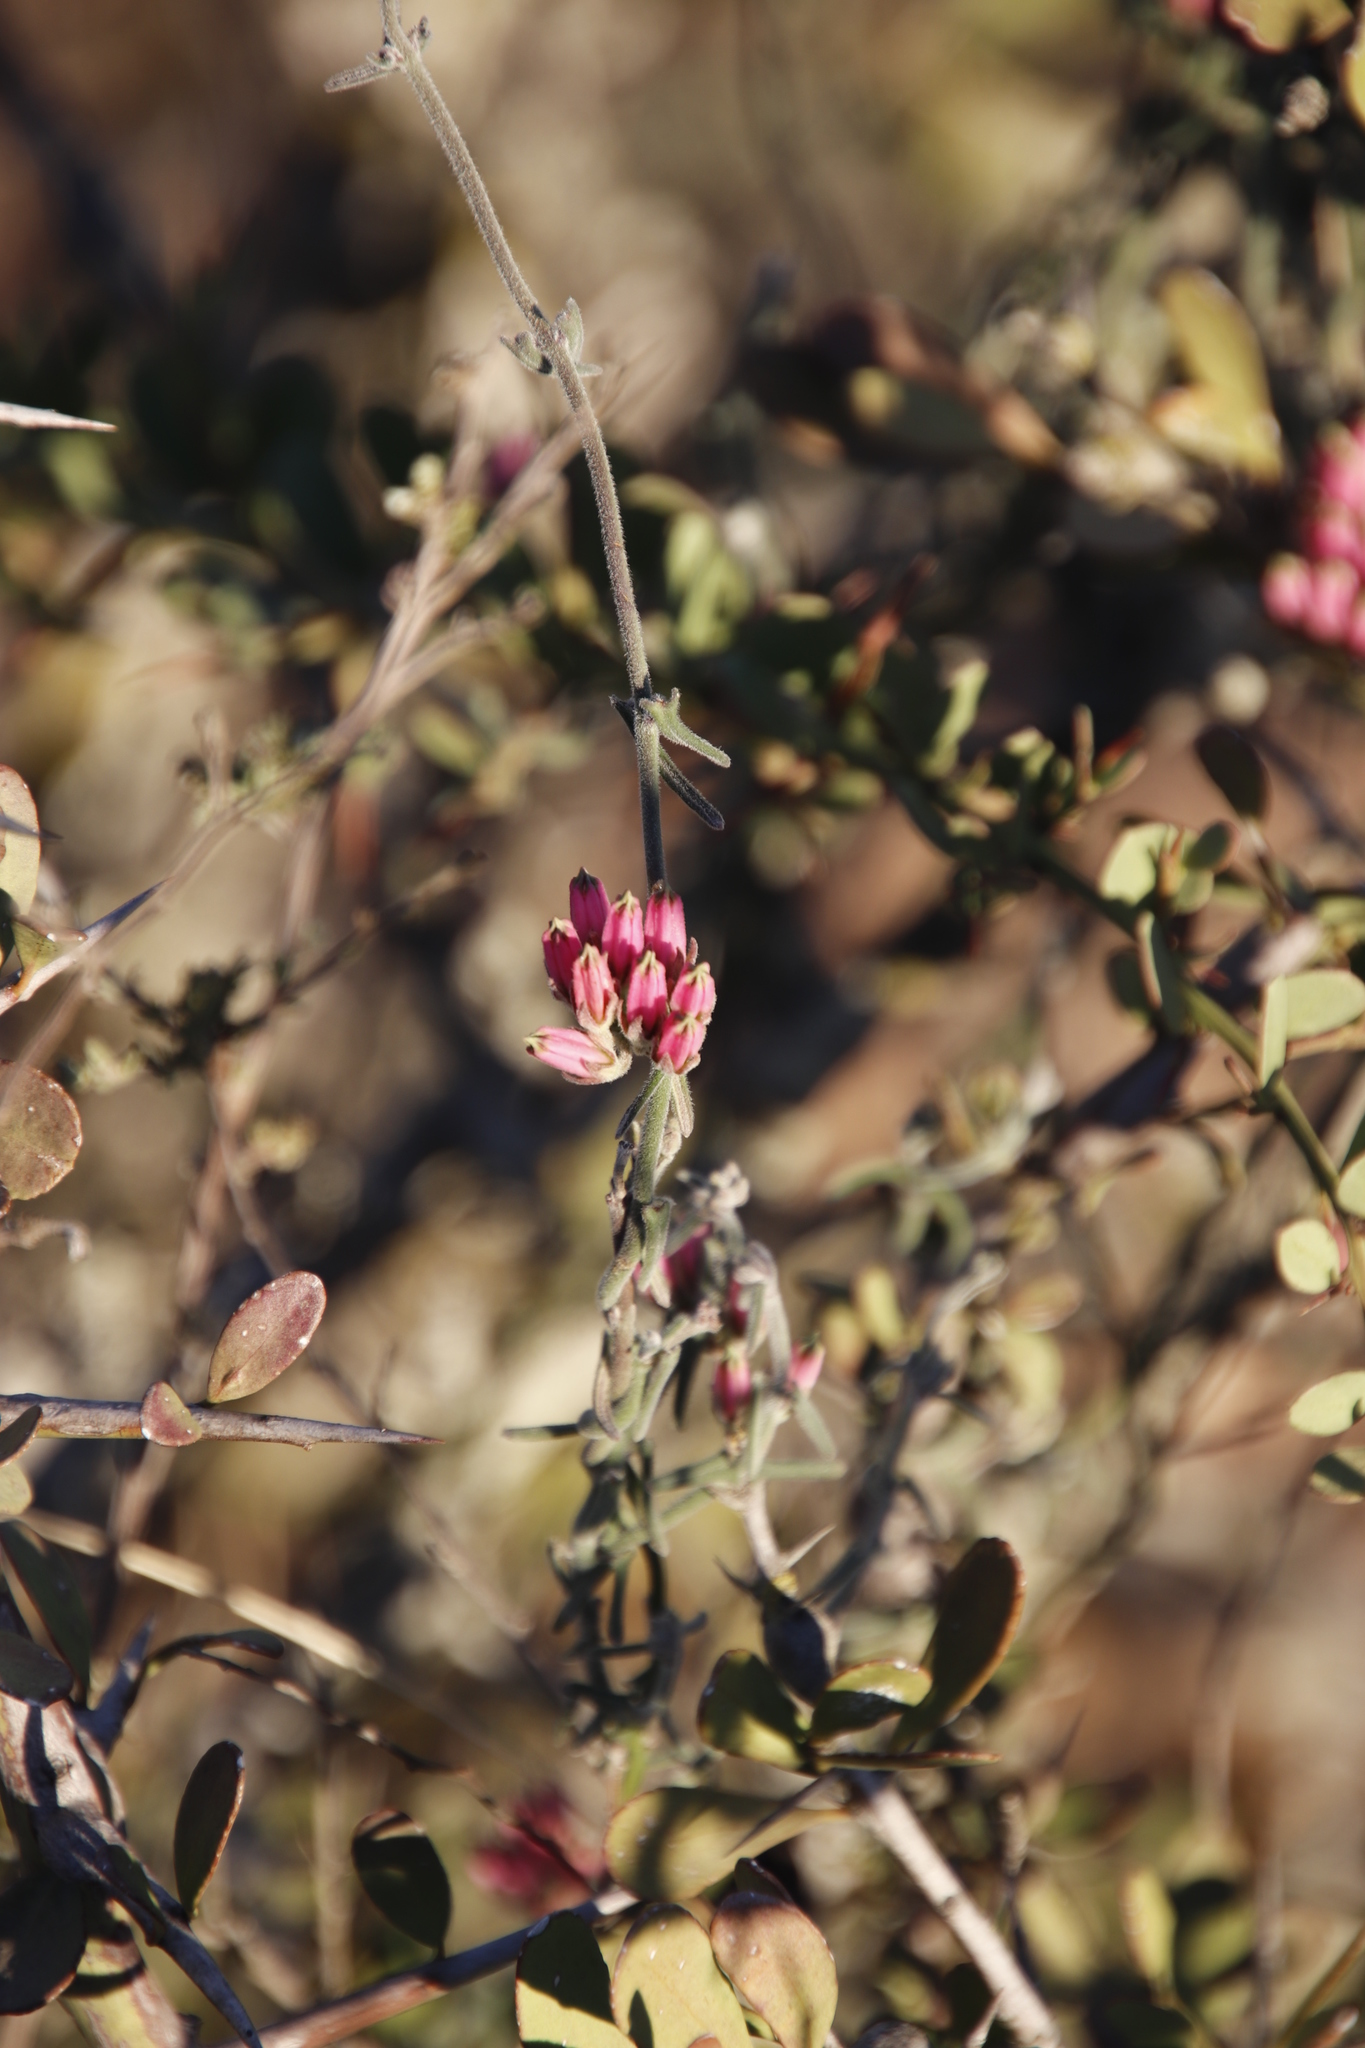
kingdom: Plantae
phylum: Tracheophyta
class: Magnoliopsida
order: Gentianales
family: Apocynaceae
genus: Microloma
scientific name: Microloma sagittatum
